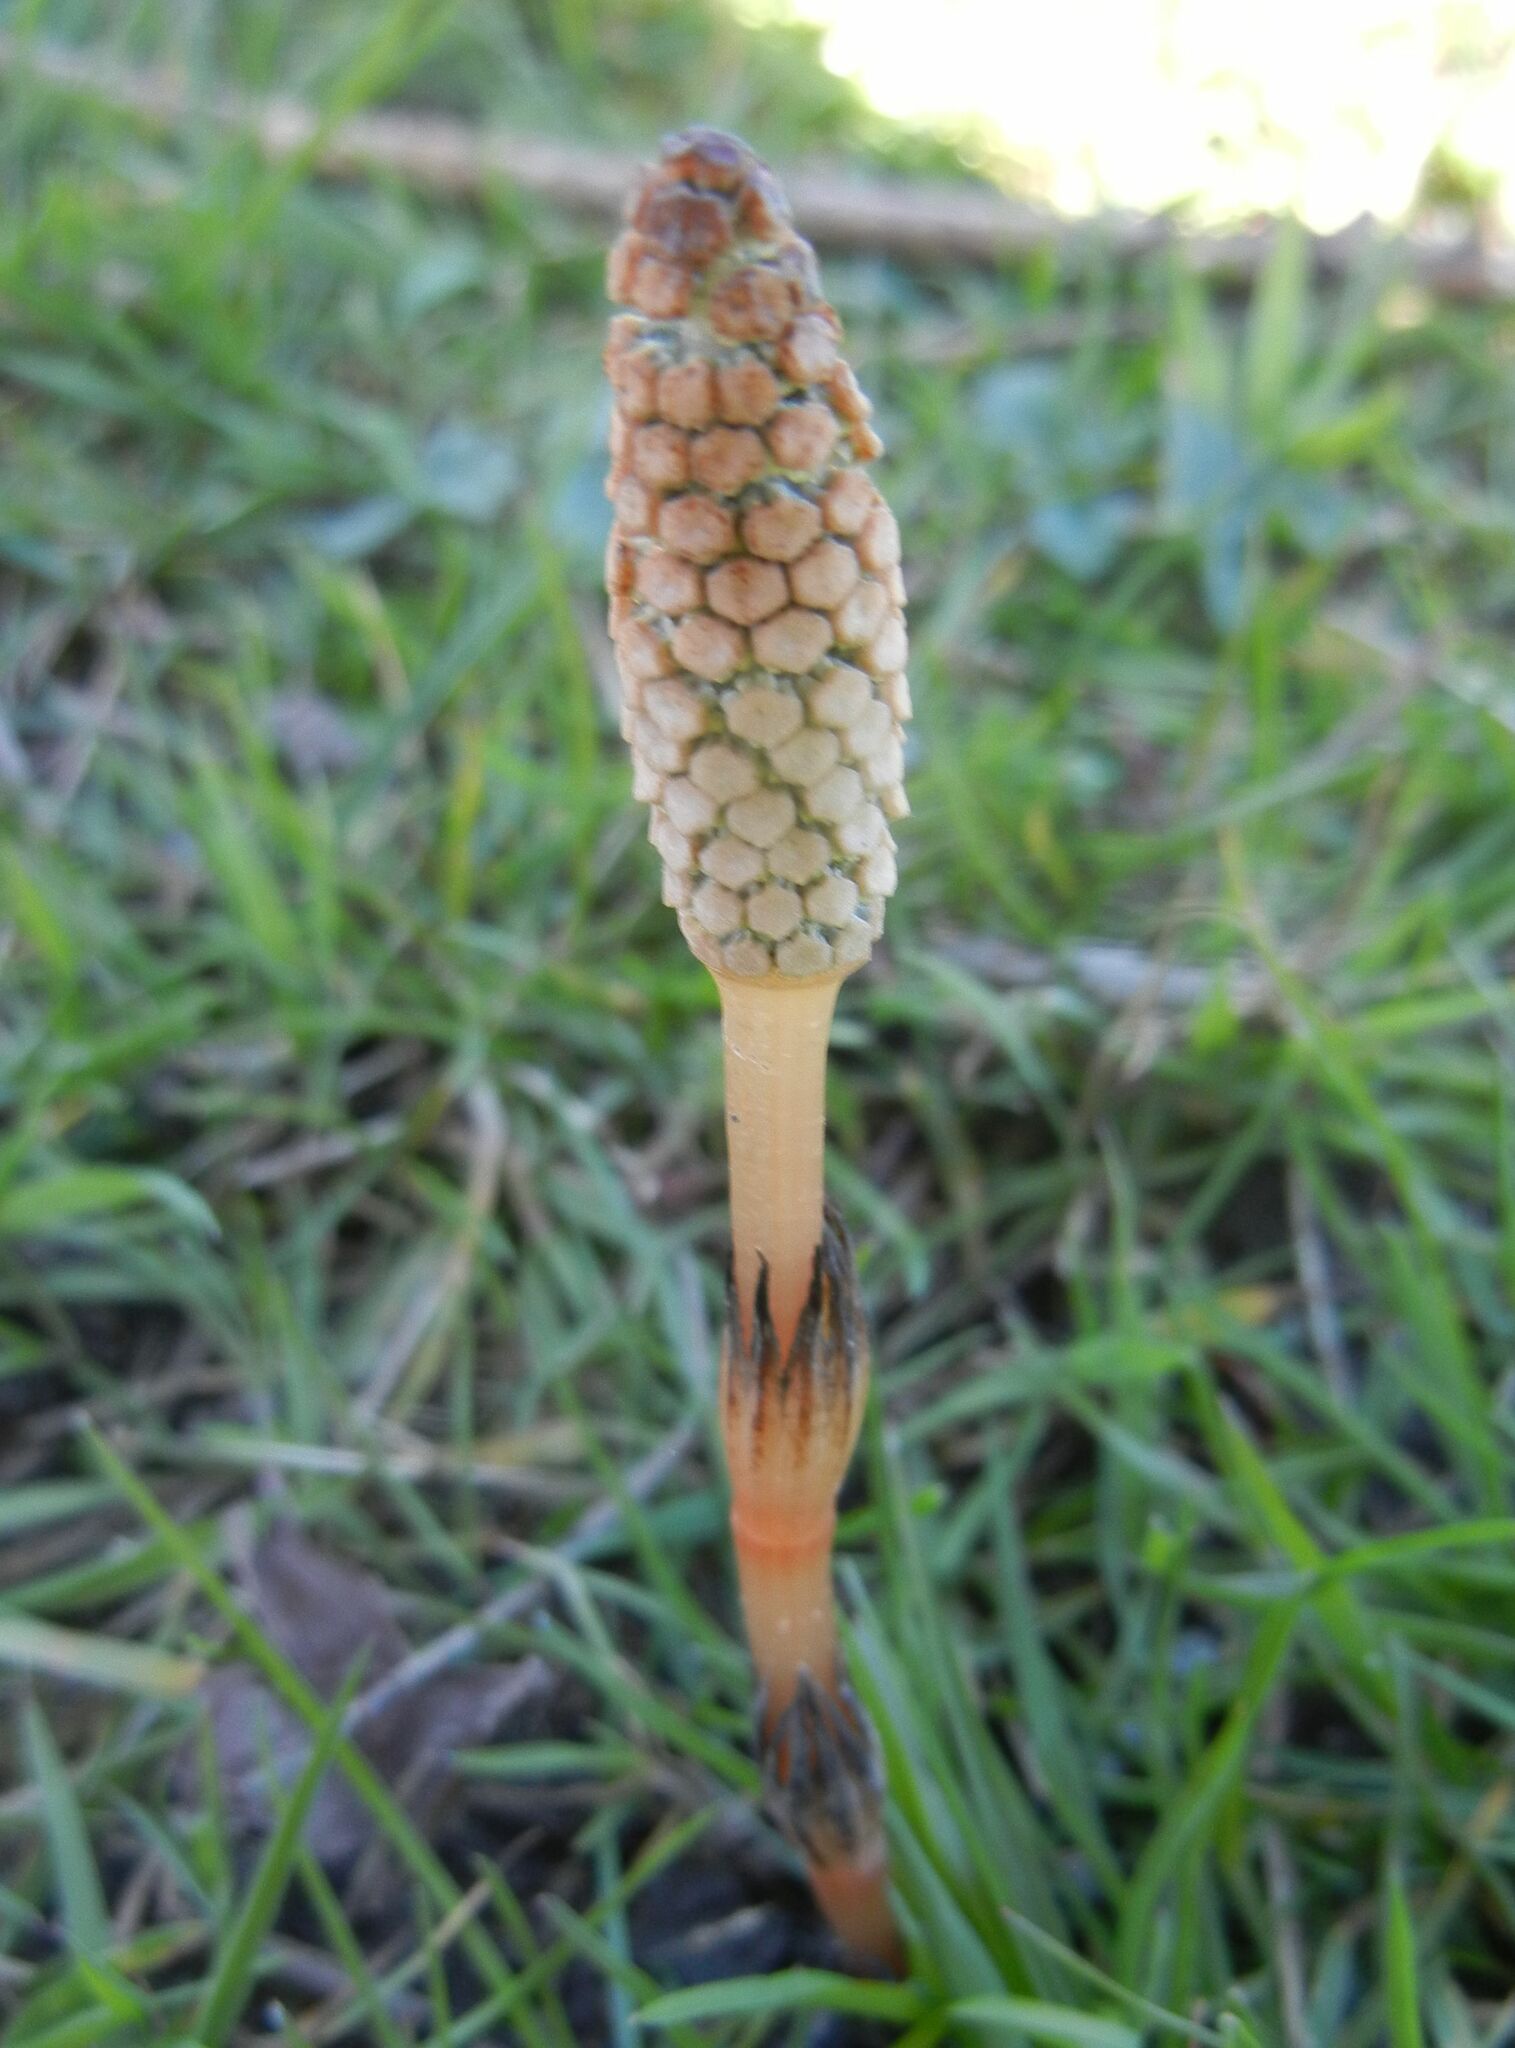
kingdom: Plantae
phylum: Tracheophyta
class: Polypodiopsida
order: Equisetales
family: Equisetaceae
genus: Equisetum
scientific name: Equisetum arvense
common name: Field horsetail
